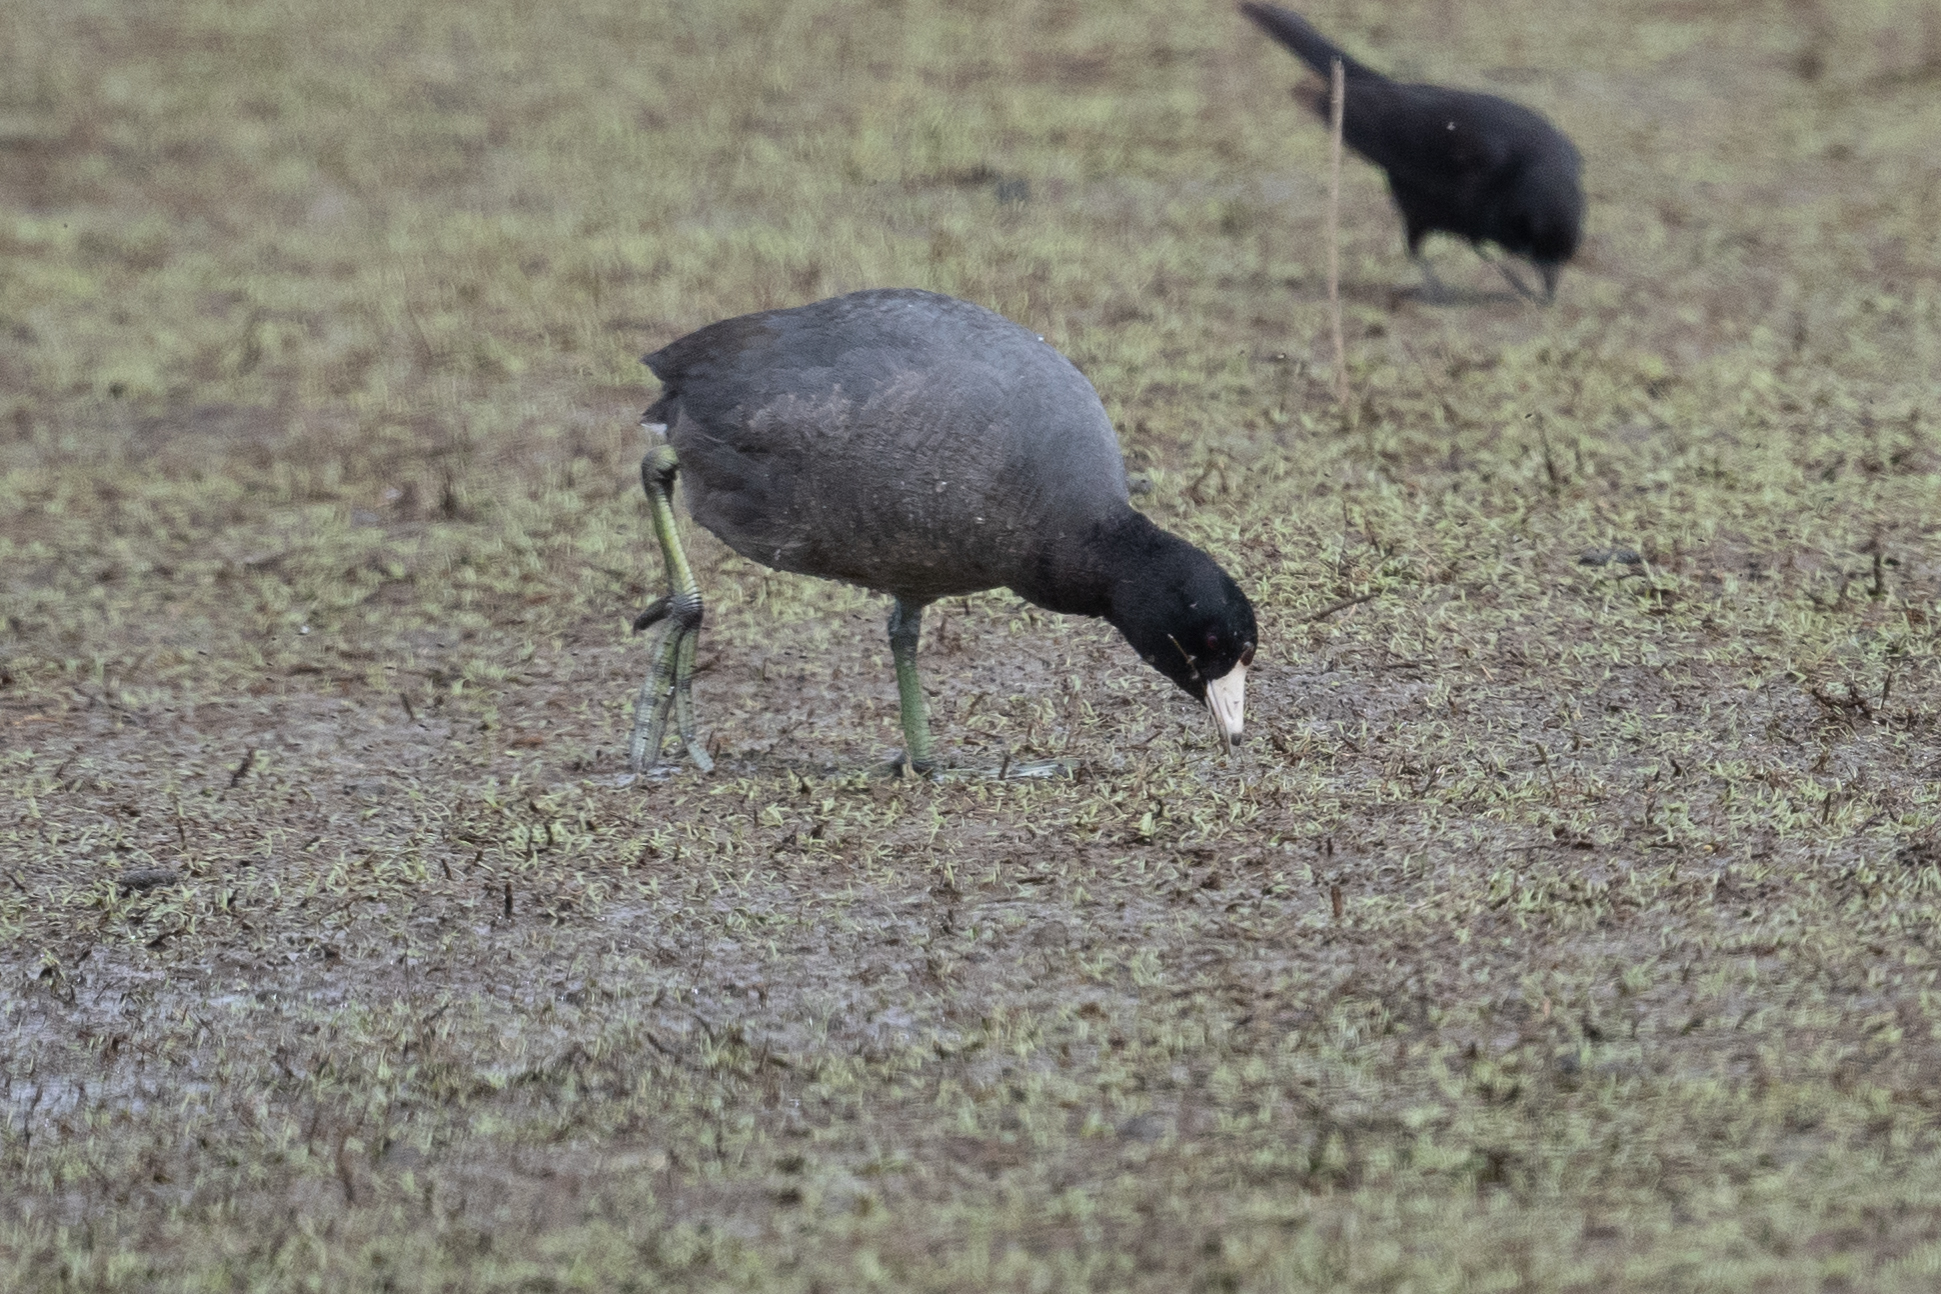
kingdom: Animalia
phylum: Chordata
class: Aves
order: Gruiformes
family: Rallidae
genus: Fulica
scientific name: Fulica americana
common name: American coot
